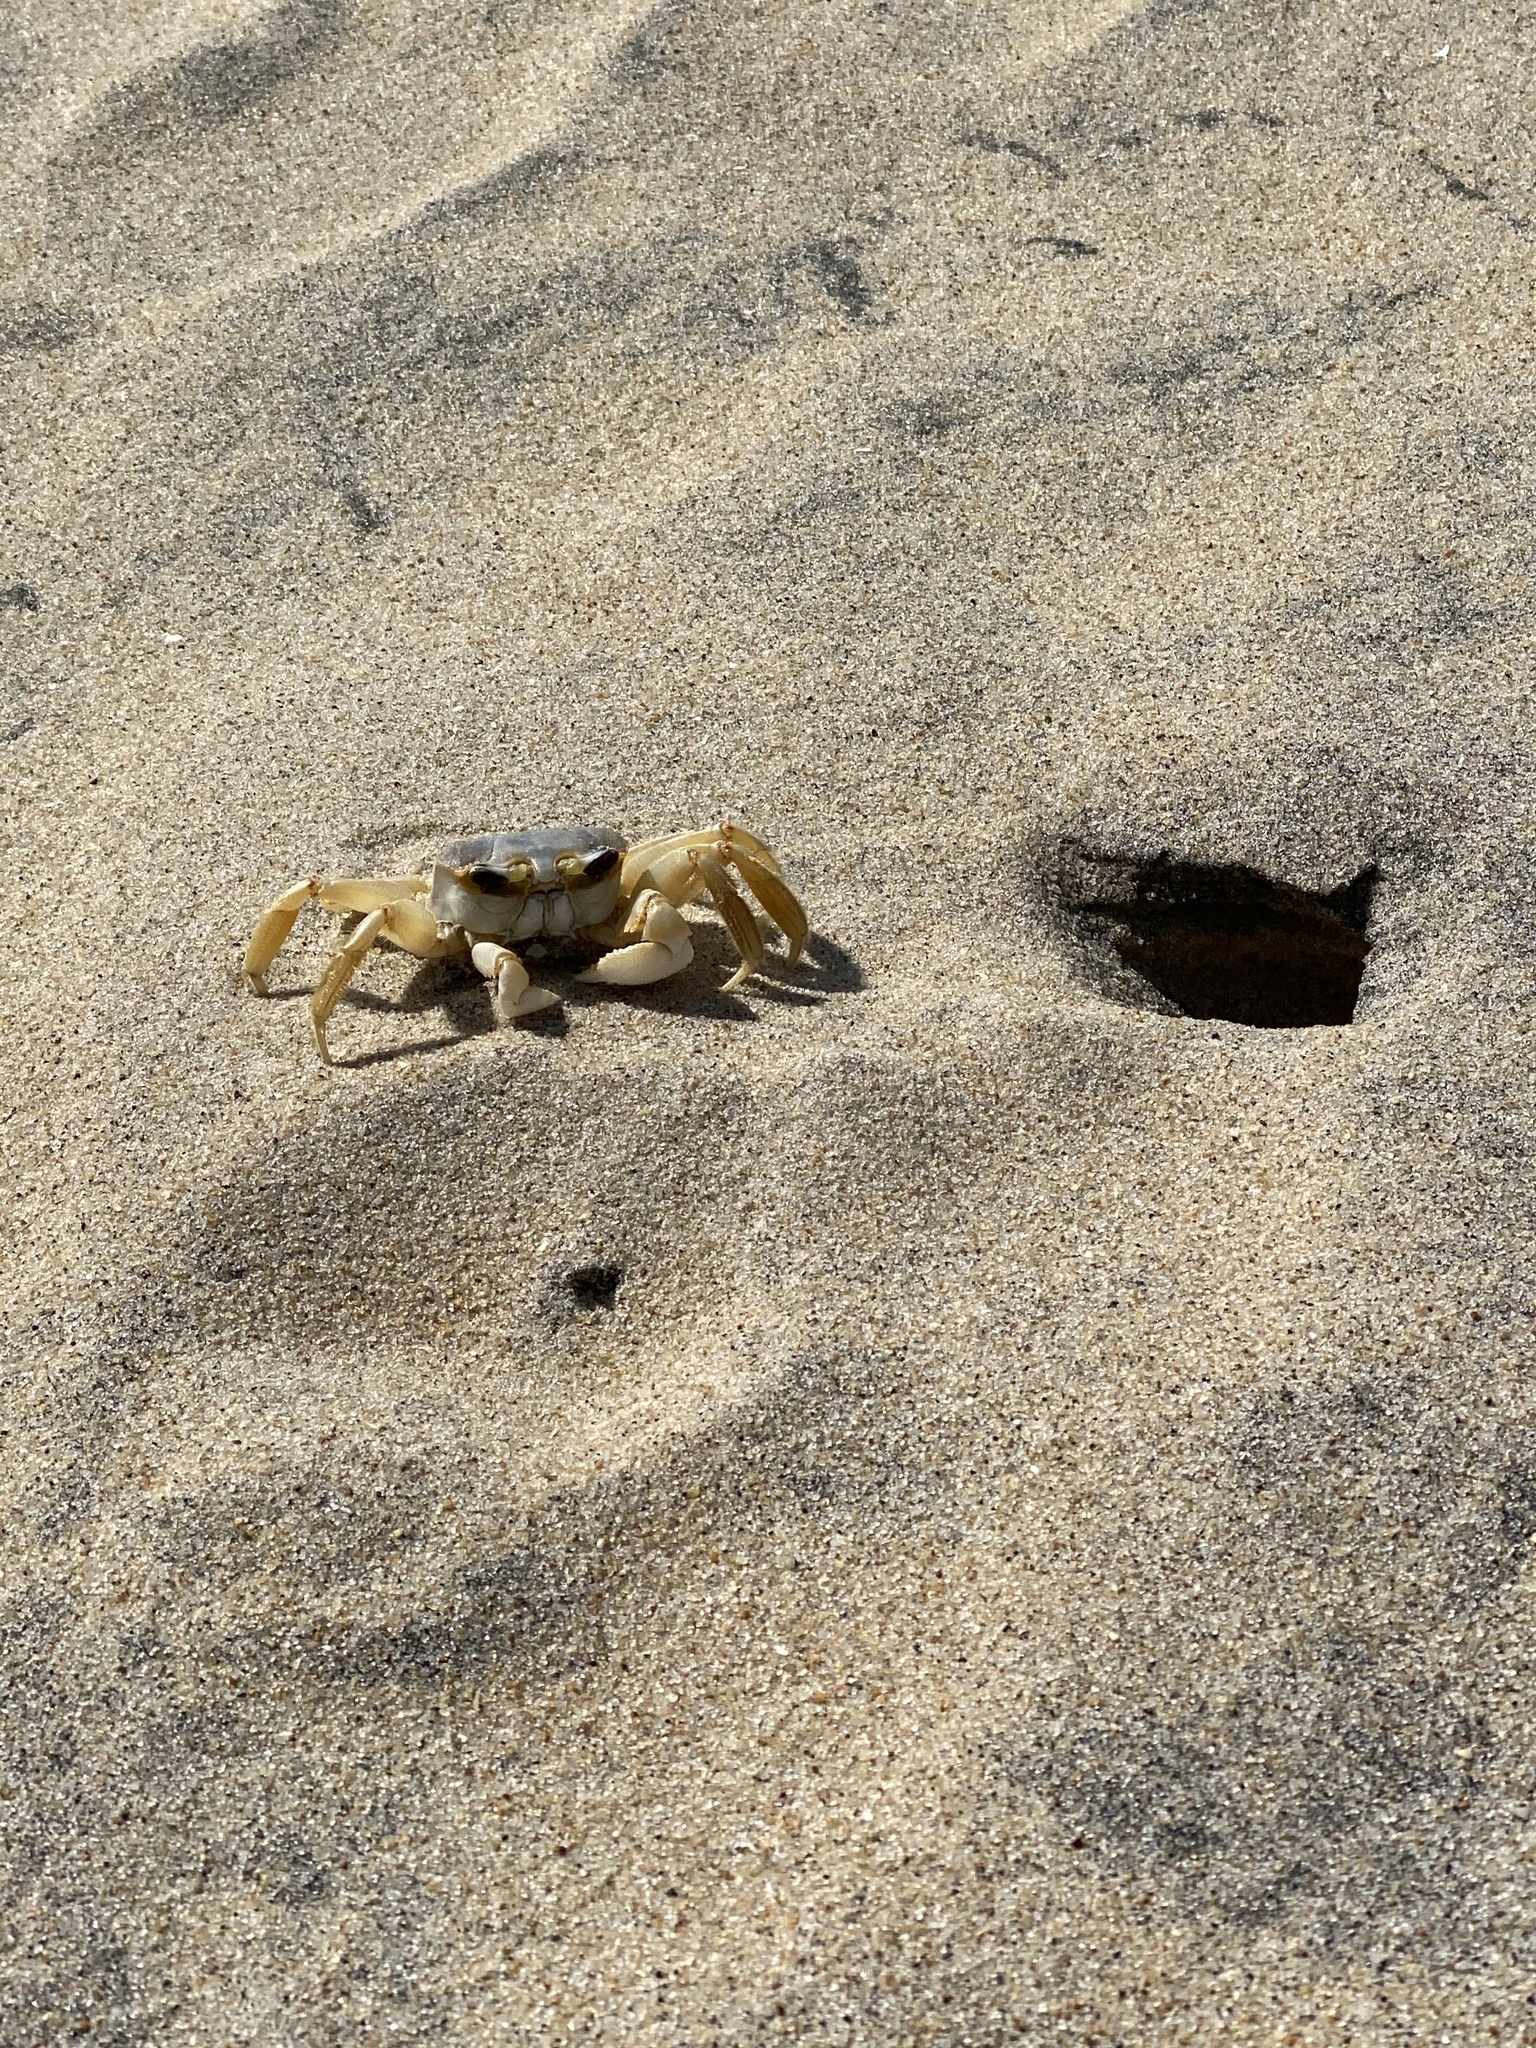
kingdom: Animalia
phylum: Arthropoda
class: Malacostraca
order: Decapoda
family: Ocypodidae
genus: Ocypode
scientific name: Ocypode quadrata
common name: Ghost crab
